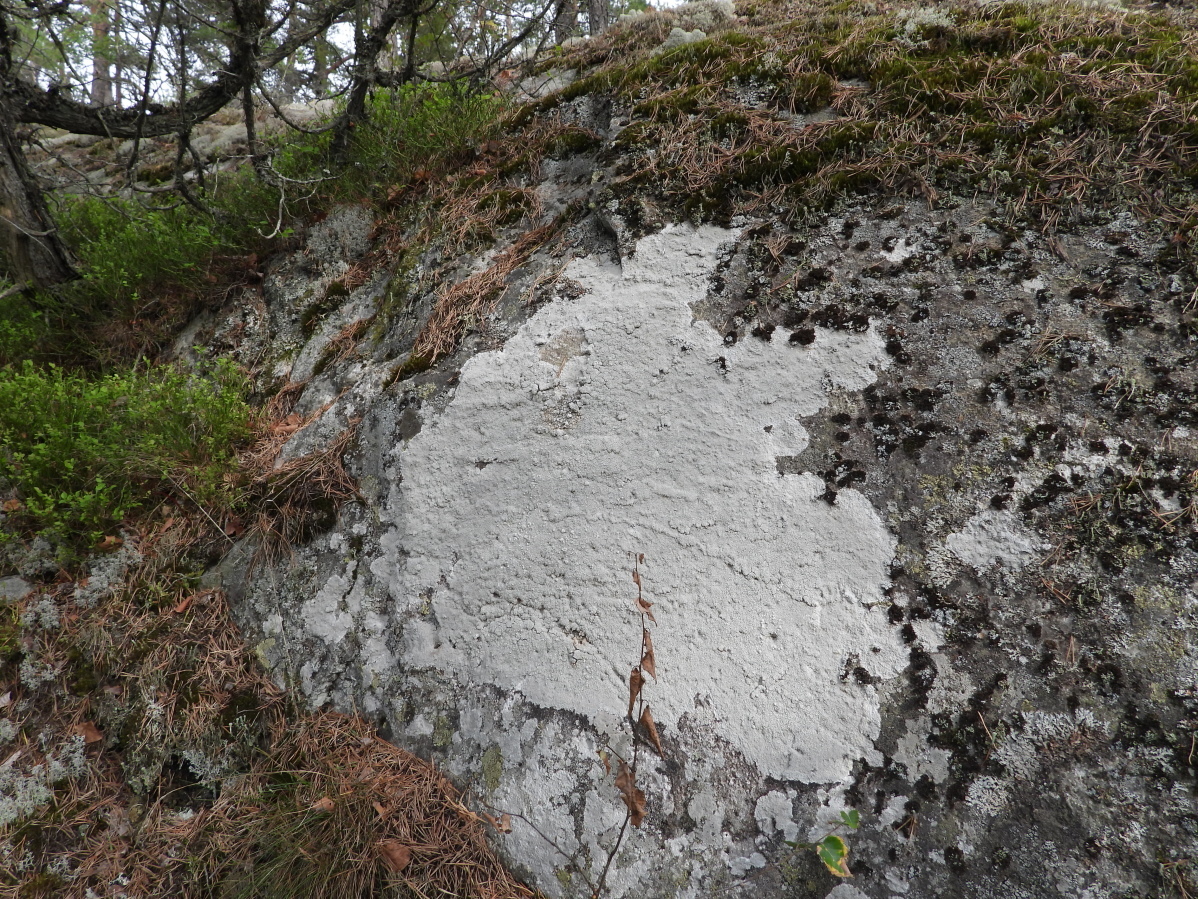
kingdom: Fungi
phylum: Ascomycota
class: Lecanoromycetes
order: Pertusariales
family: Pertusariaceae
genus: Lepra
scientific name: Lepra corallina
